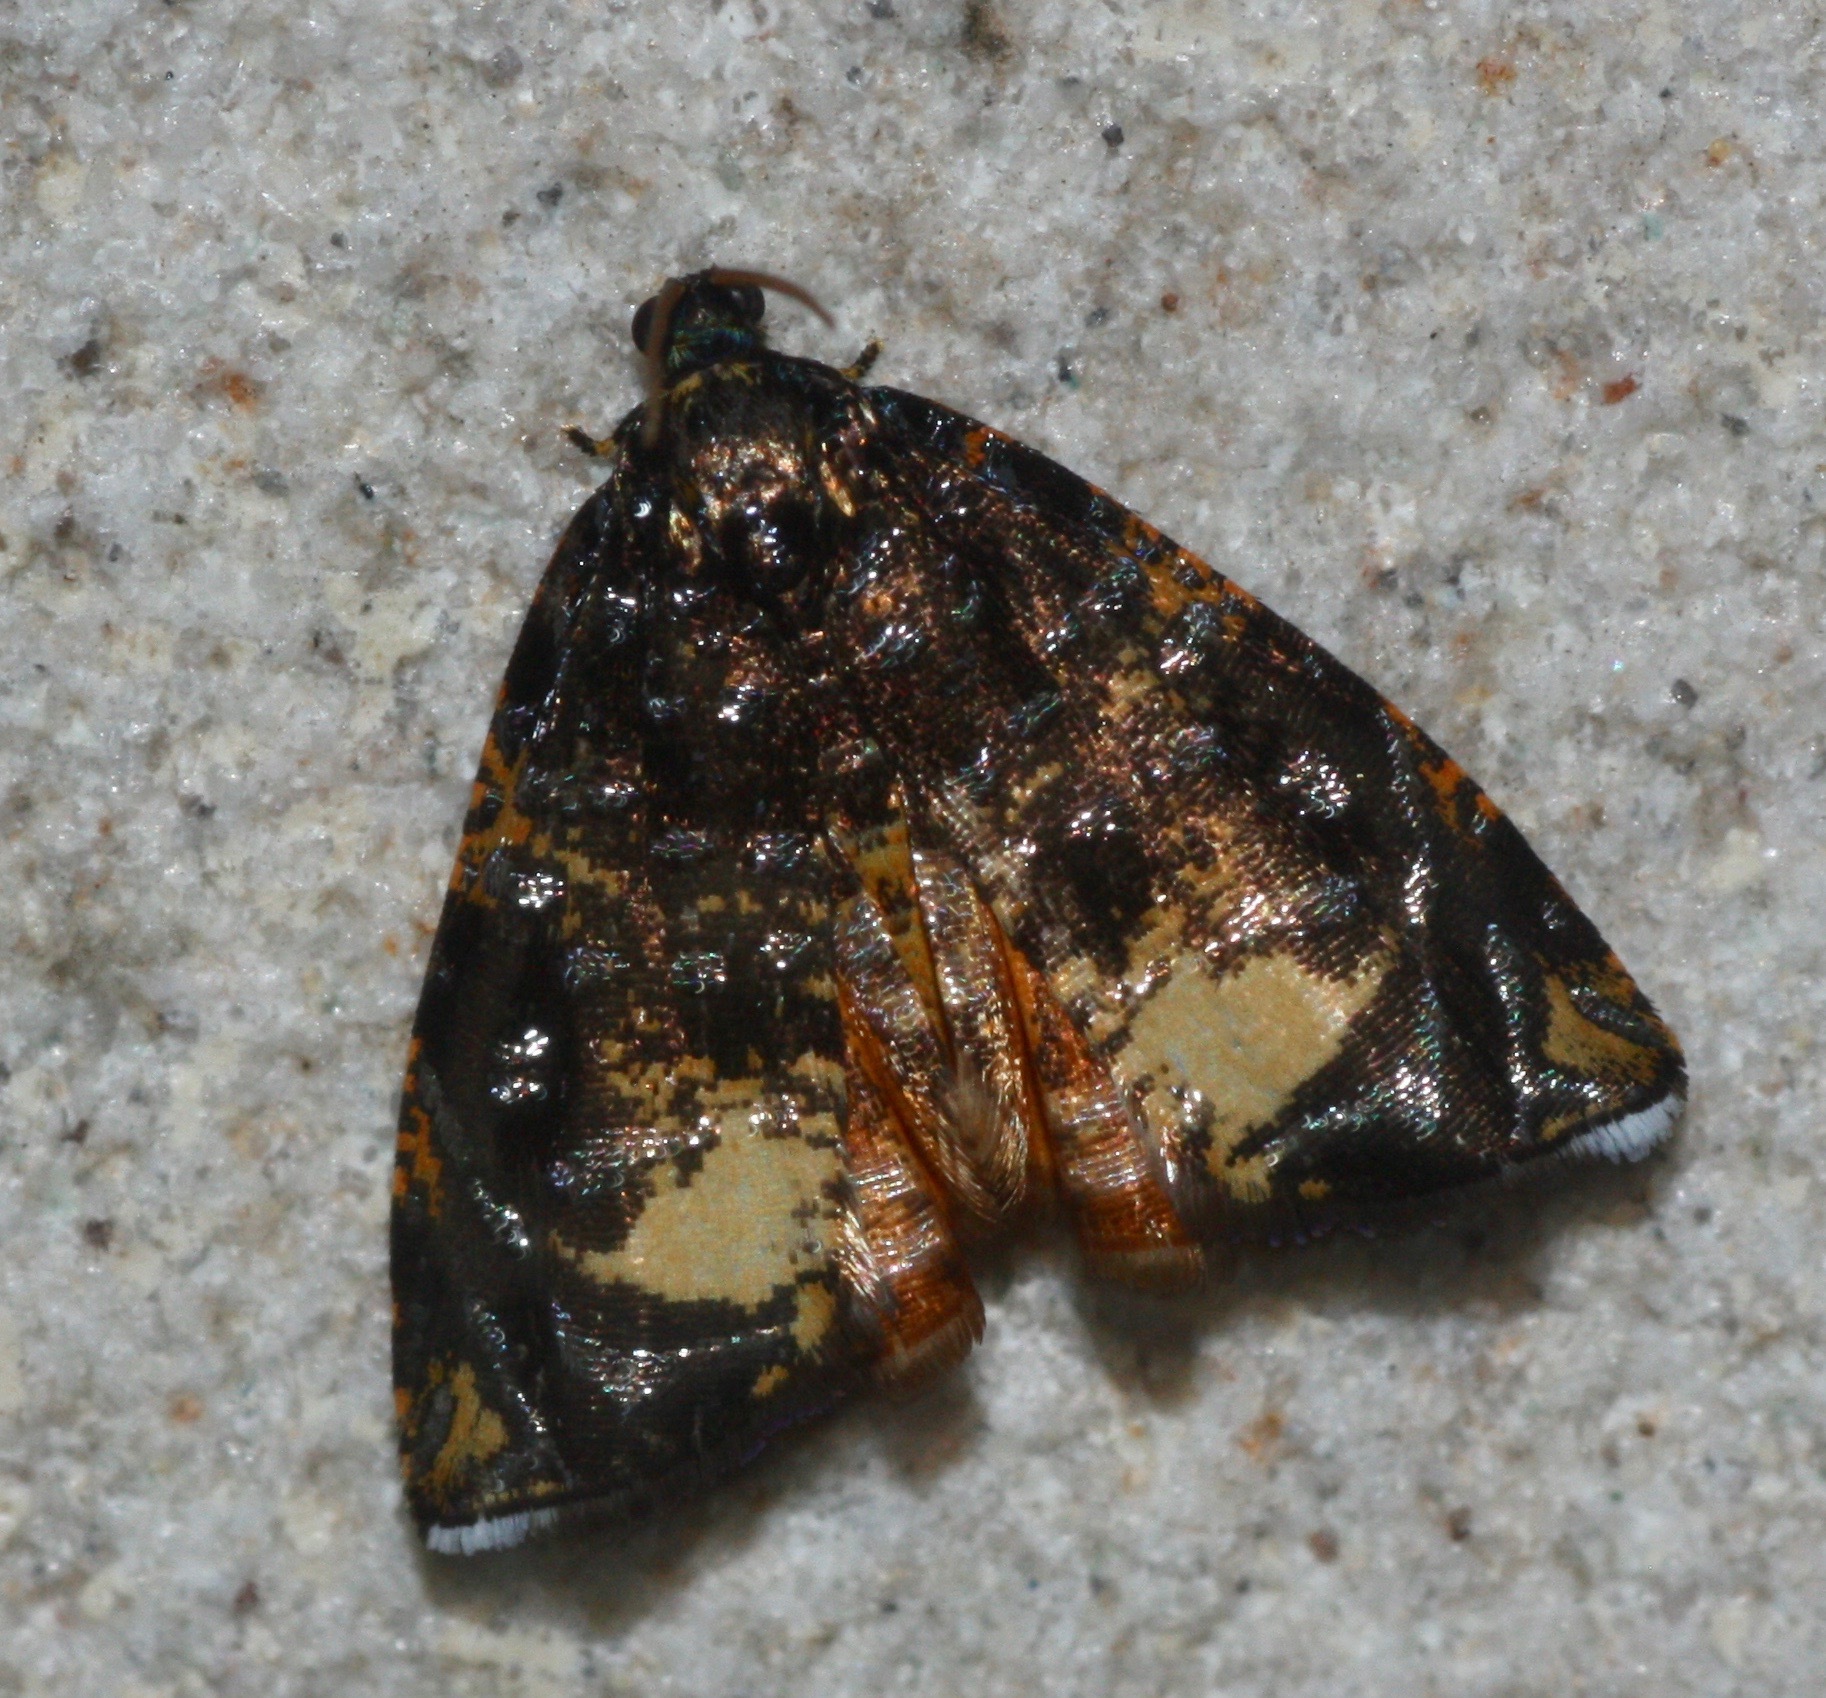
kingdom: Animalia
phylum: Arthropoda
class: Insecta
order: Lepidoptera
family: Tortricidae
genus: Mictopsichia
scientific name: Mictopsichia hubneriana
